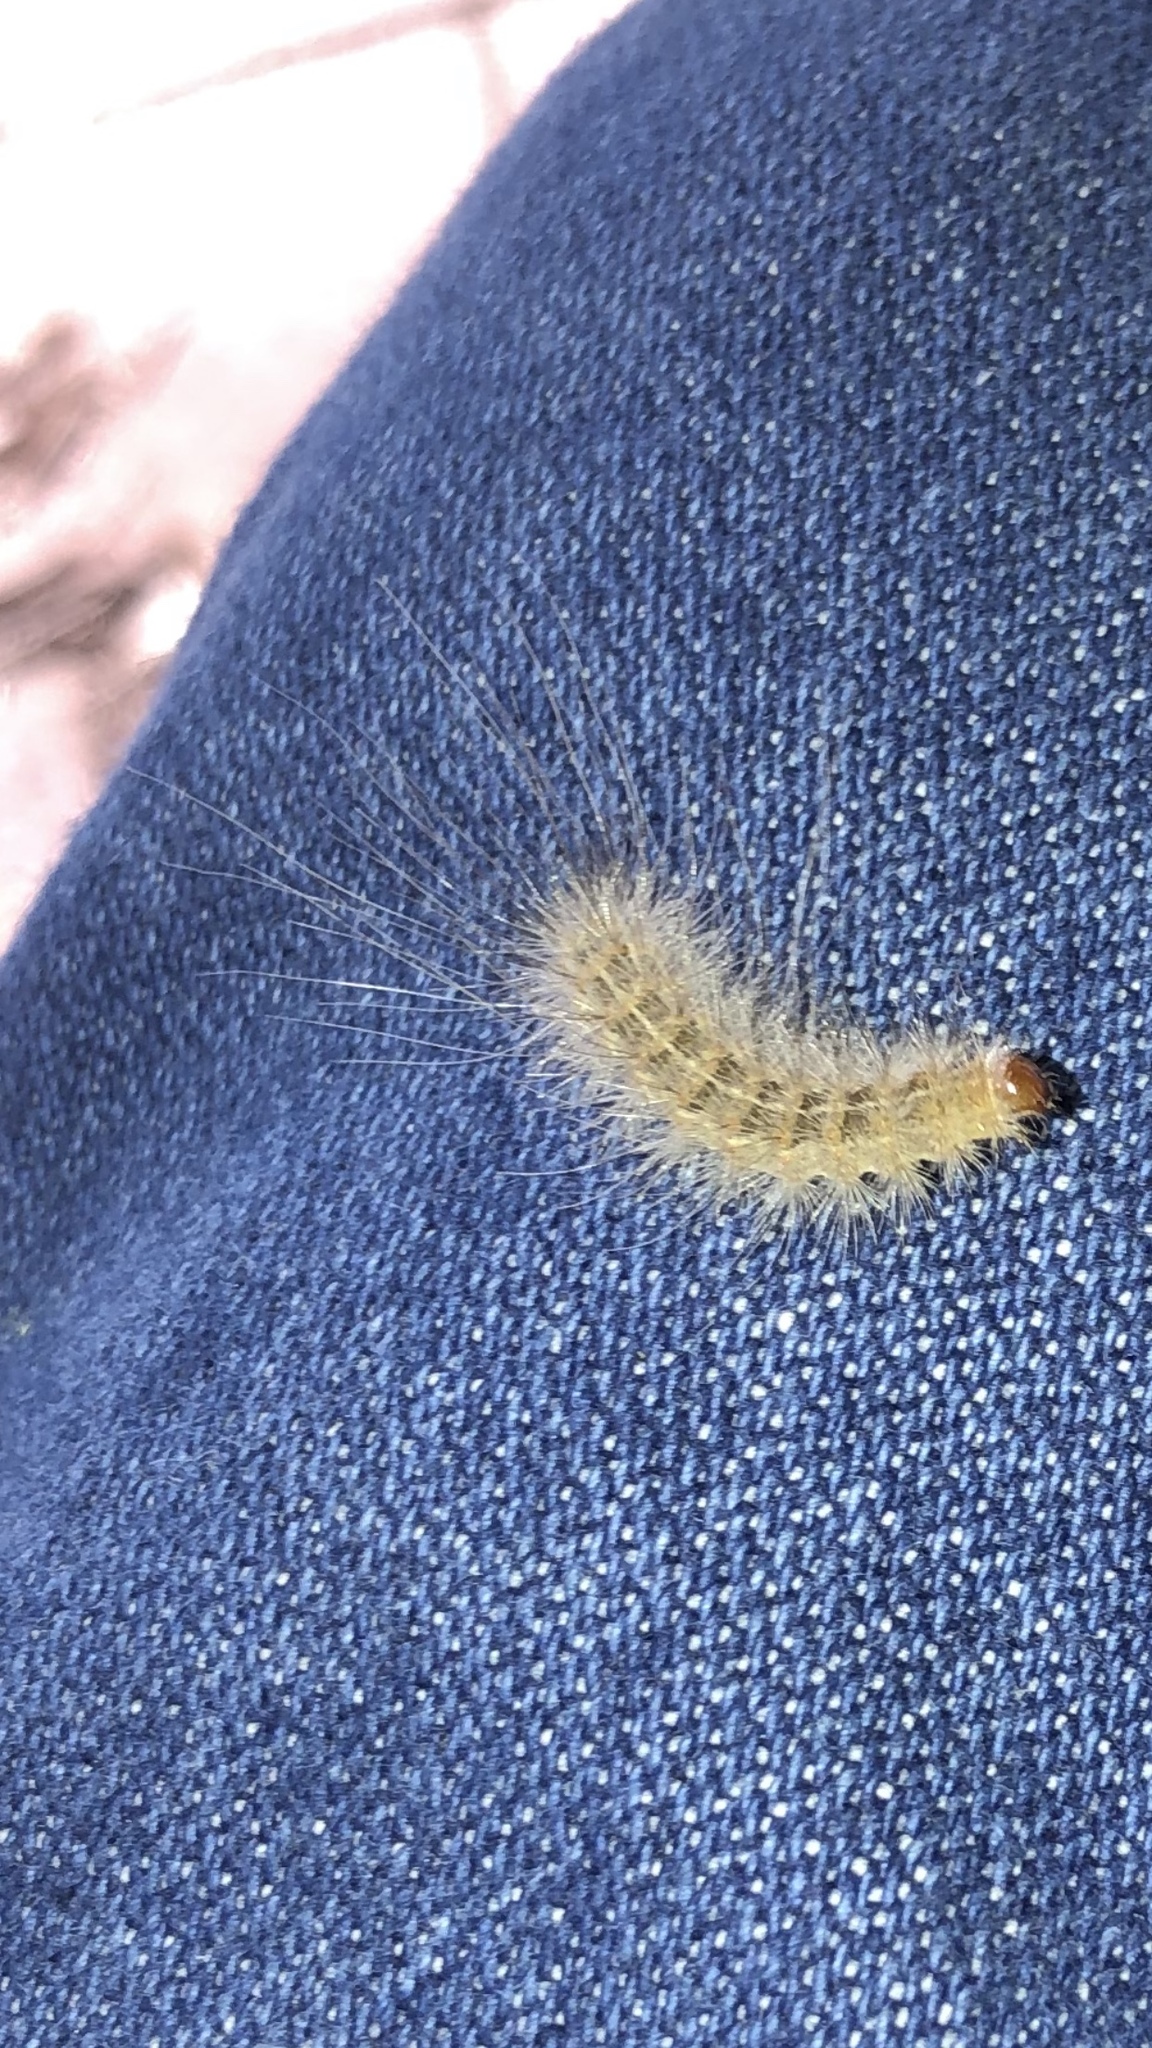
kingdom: Animalia
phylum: Arthropoda
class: Insecta
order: Lepidoptera
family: Erebidae
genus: Hyphantria
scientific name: Hyphantria cunea
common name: American white moth
